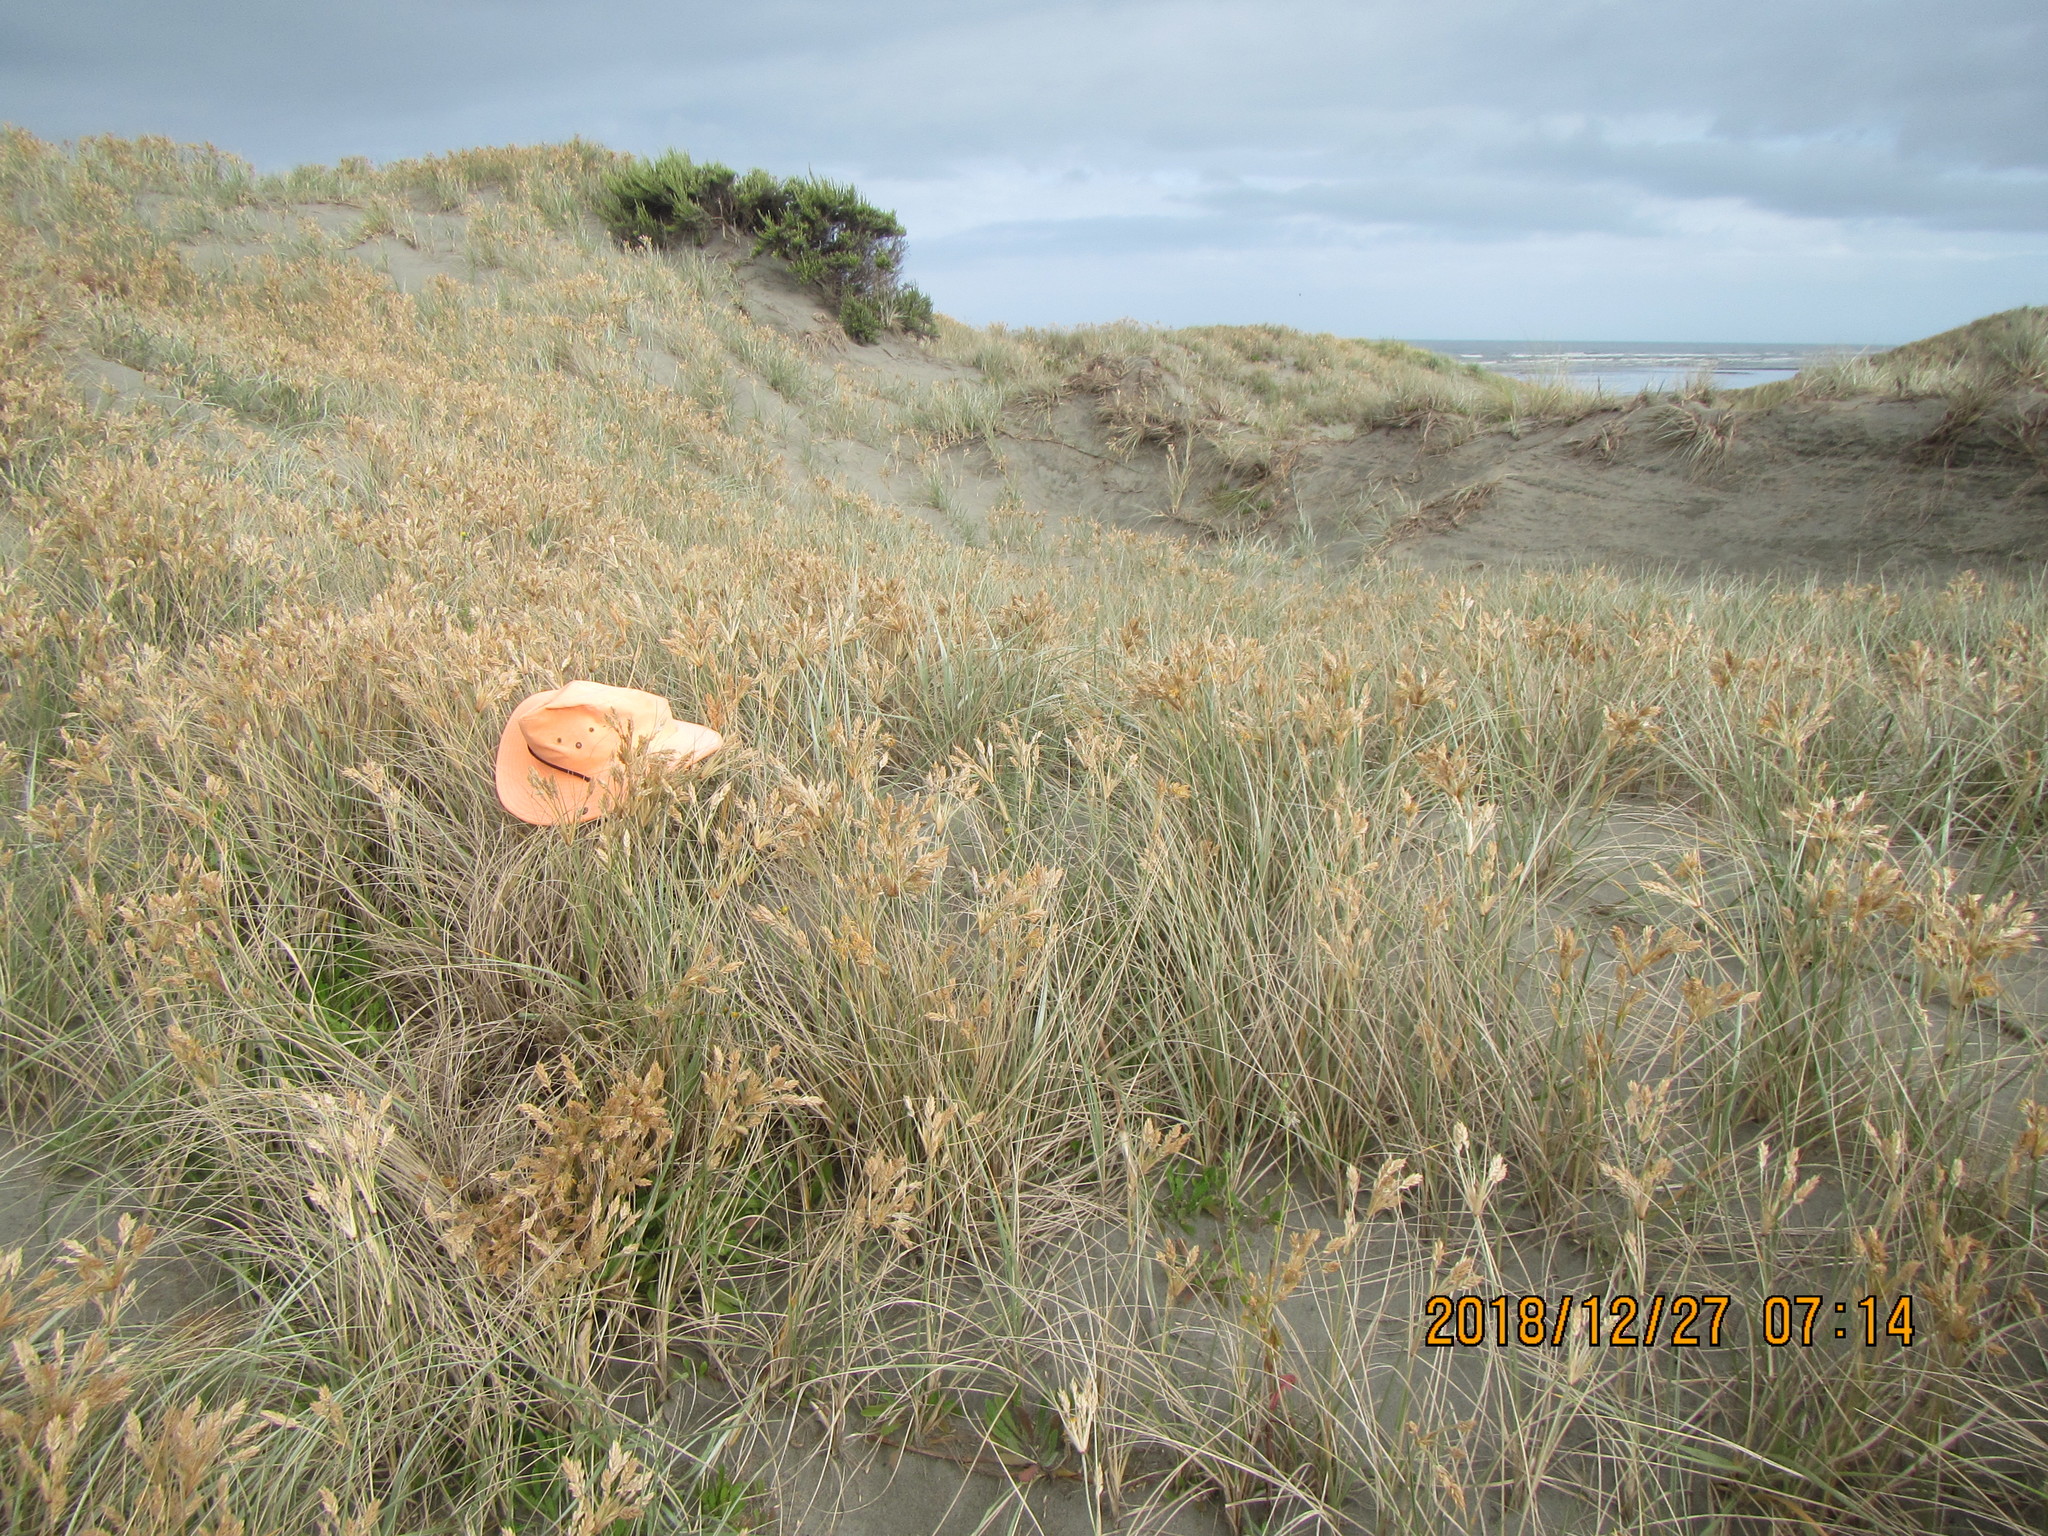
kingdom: Animalia
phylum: Arthropoda
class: Arachnida
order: Araneae
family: Thomisidae
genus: Sidymella
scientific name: Sidymella trapezia
